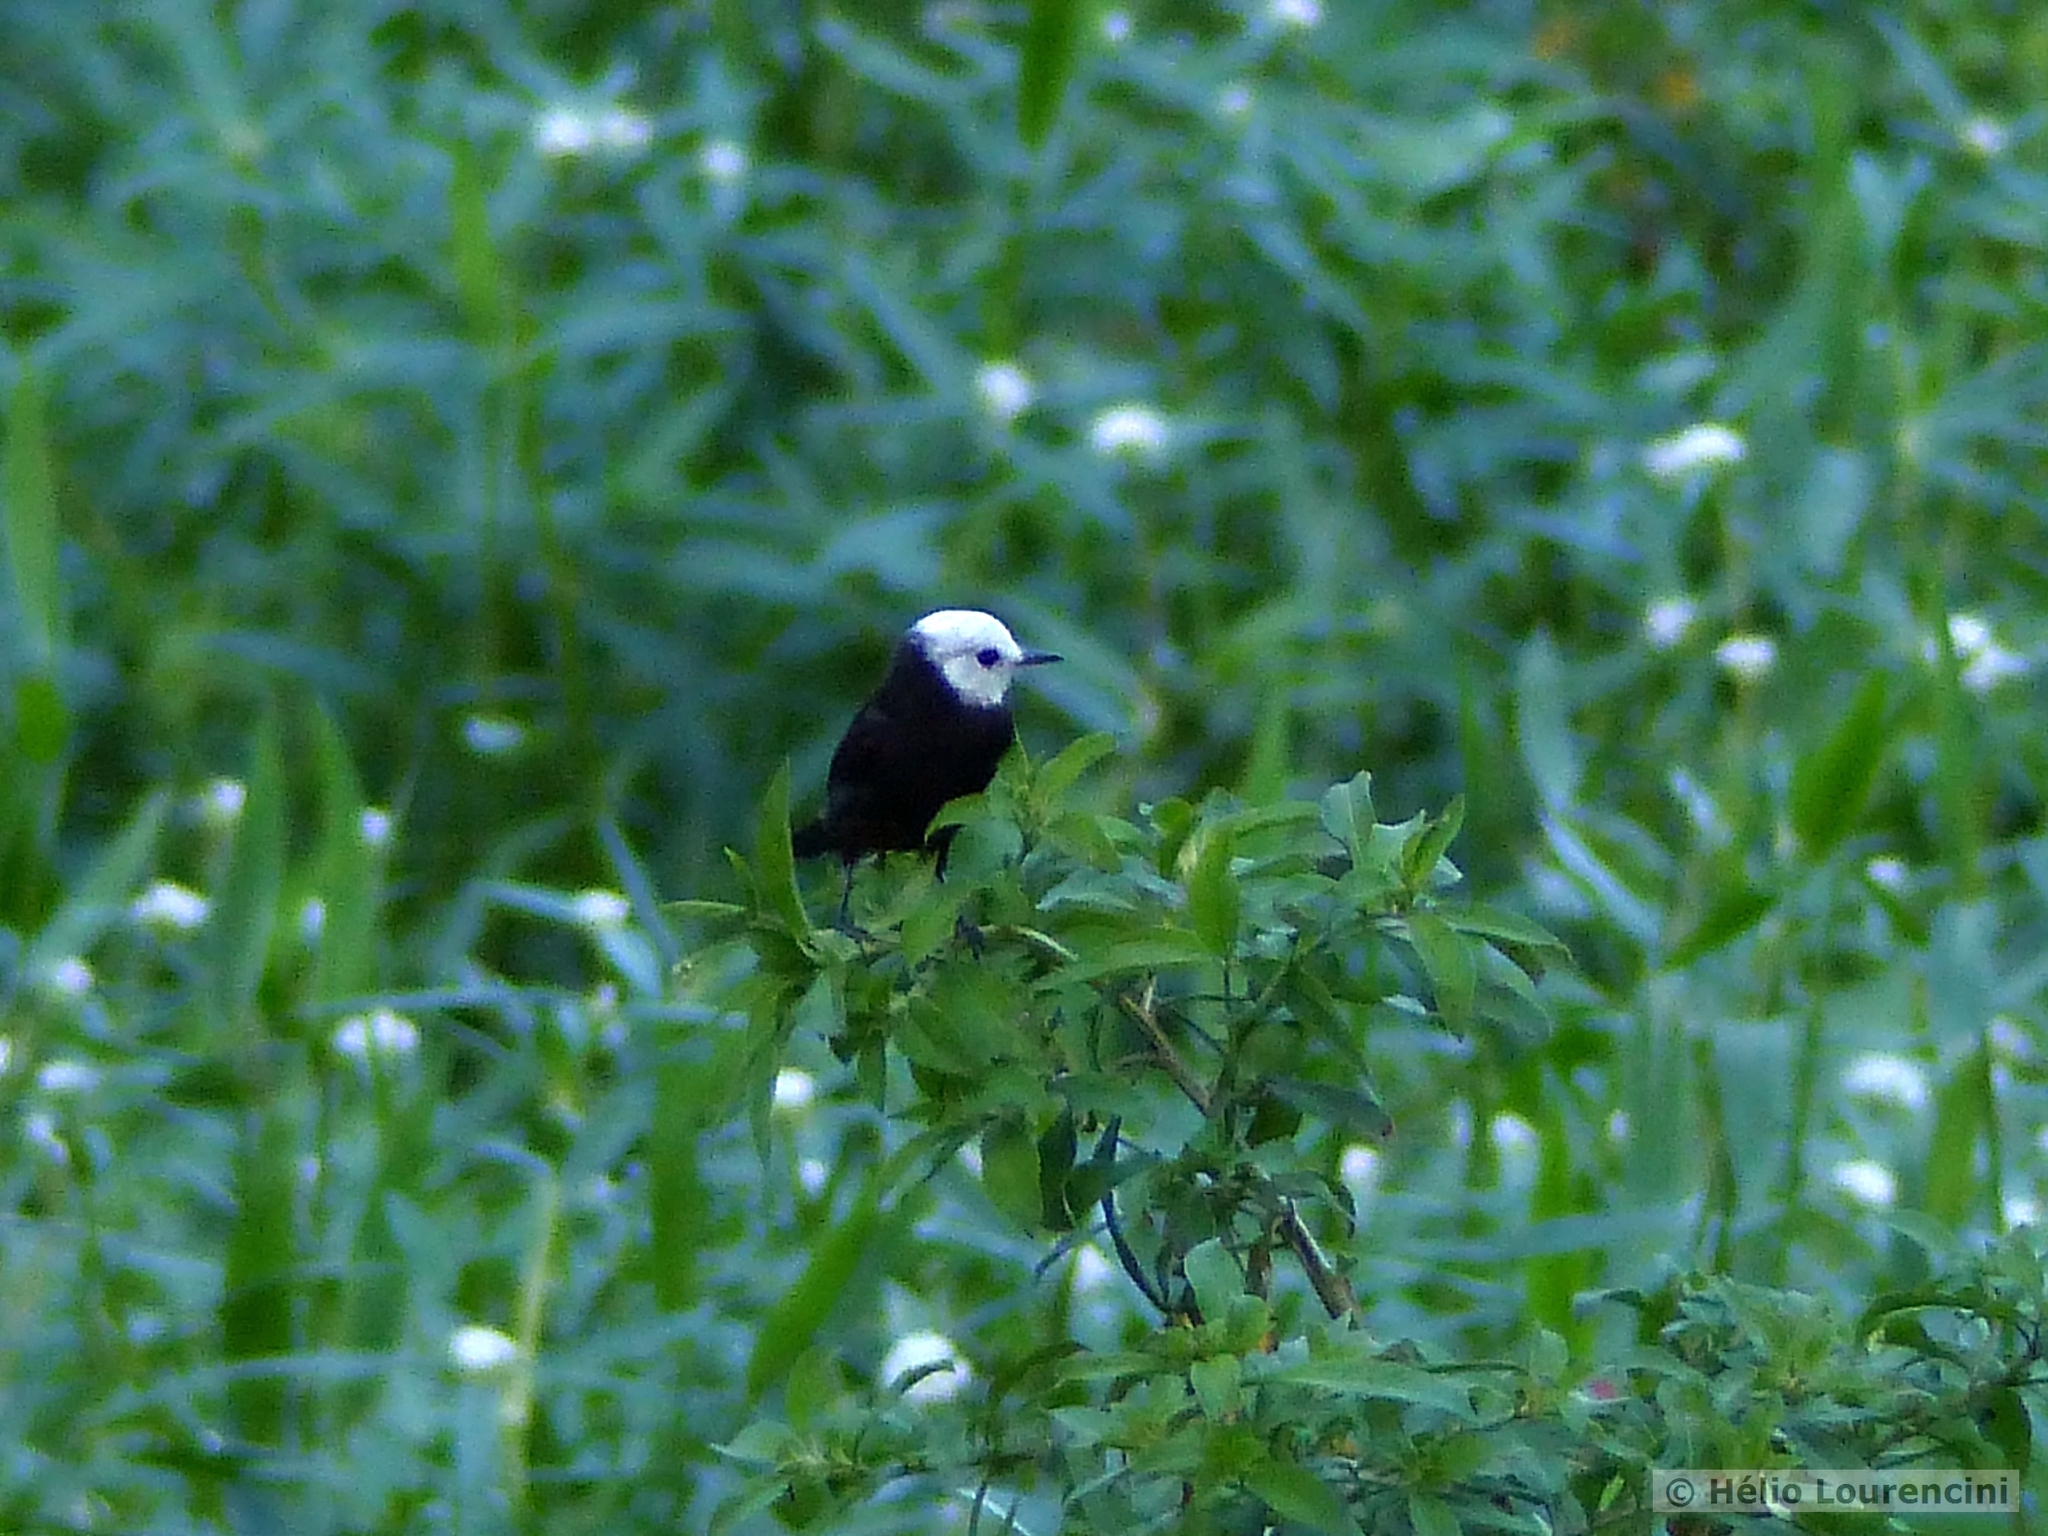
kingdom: Animalia
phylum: Chordata
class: Aves
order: Passeriformes
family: Tyrannidae
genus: Arundinicola
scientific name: Arundinicola leucocephala
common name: White-headed marsh tyrant
